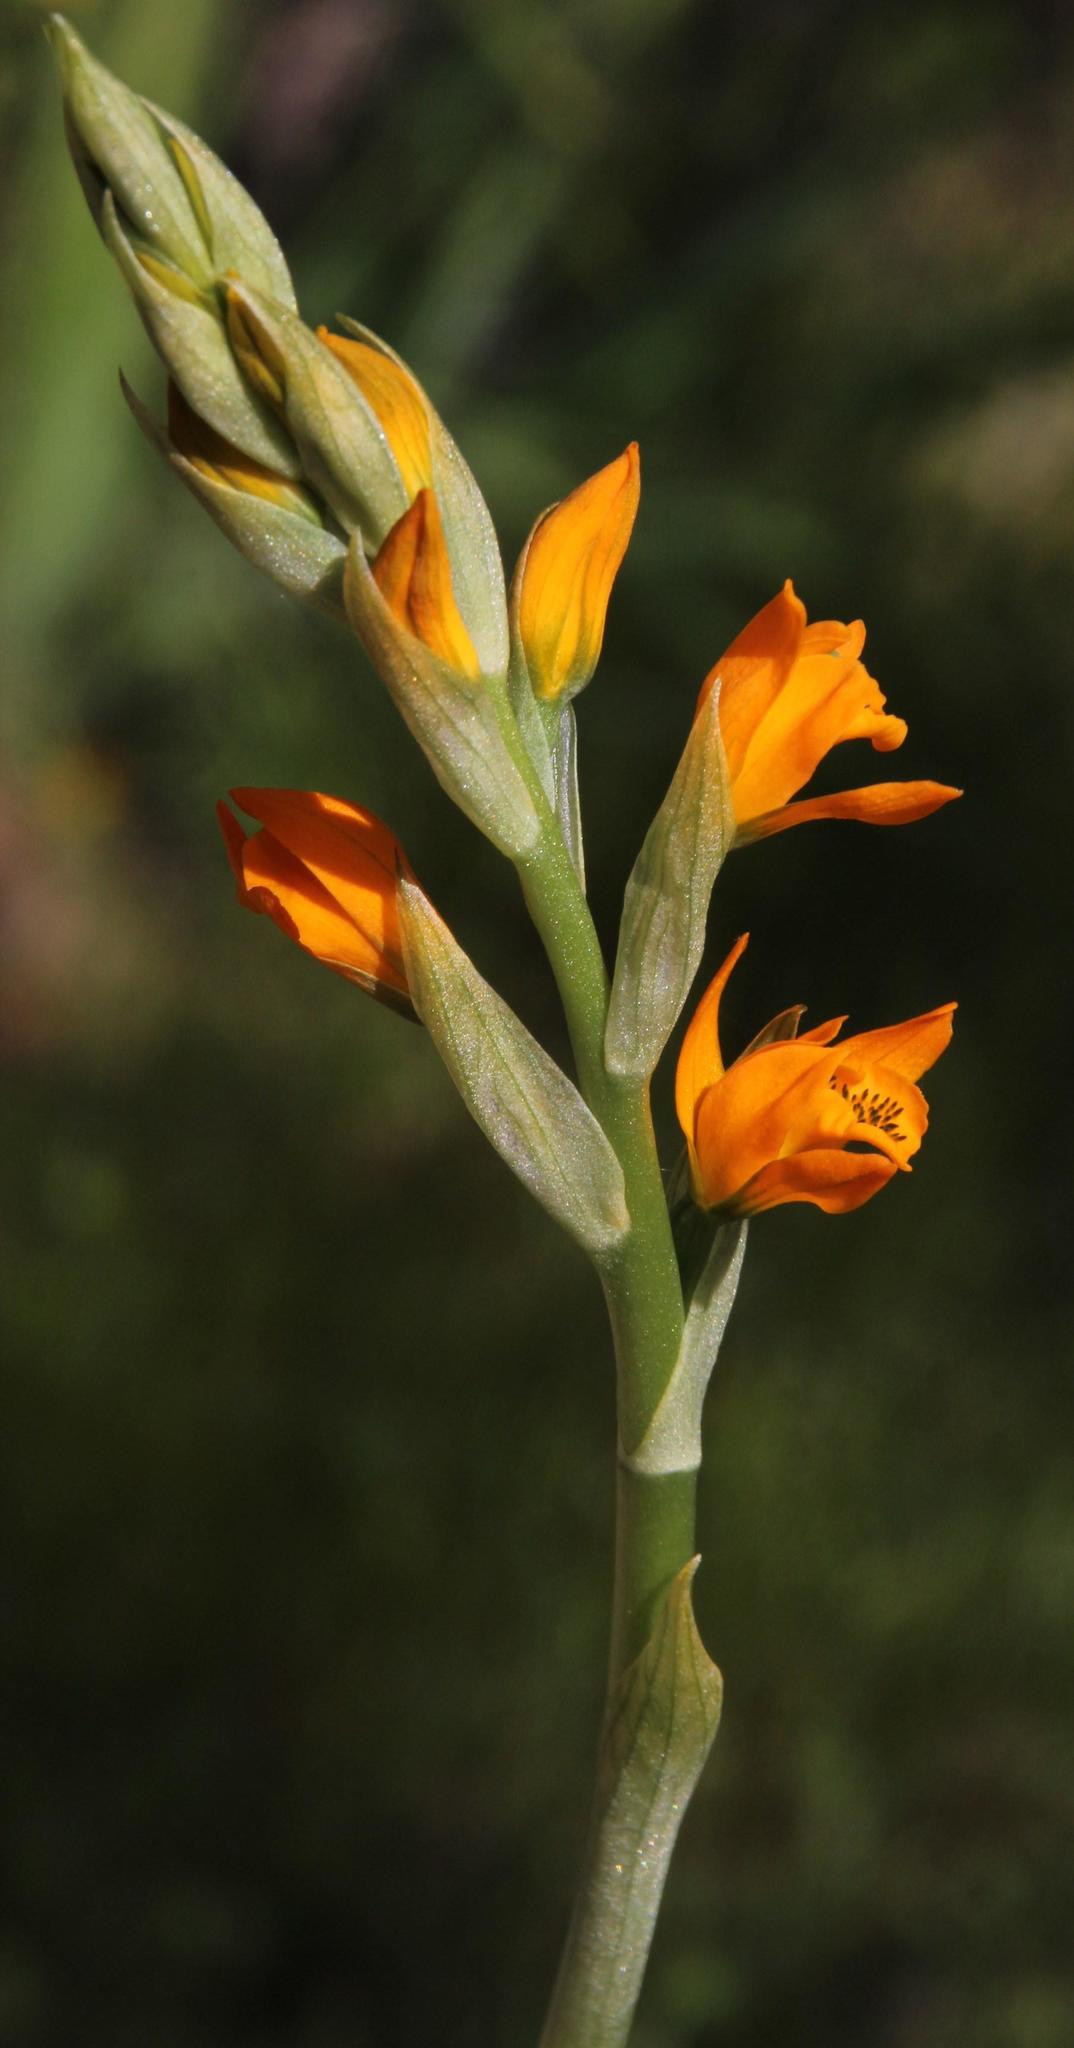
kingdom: Plantae
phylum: Tracheophyta
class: Liliopsida
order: Asparagales
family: Orchidaceae
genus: Chloraea
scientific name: Chloraea chrysantha
